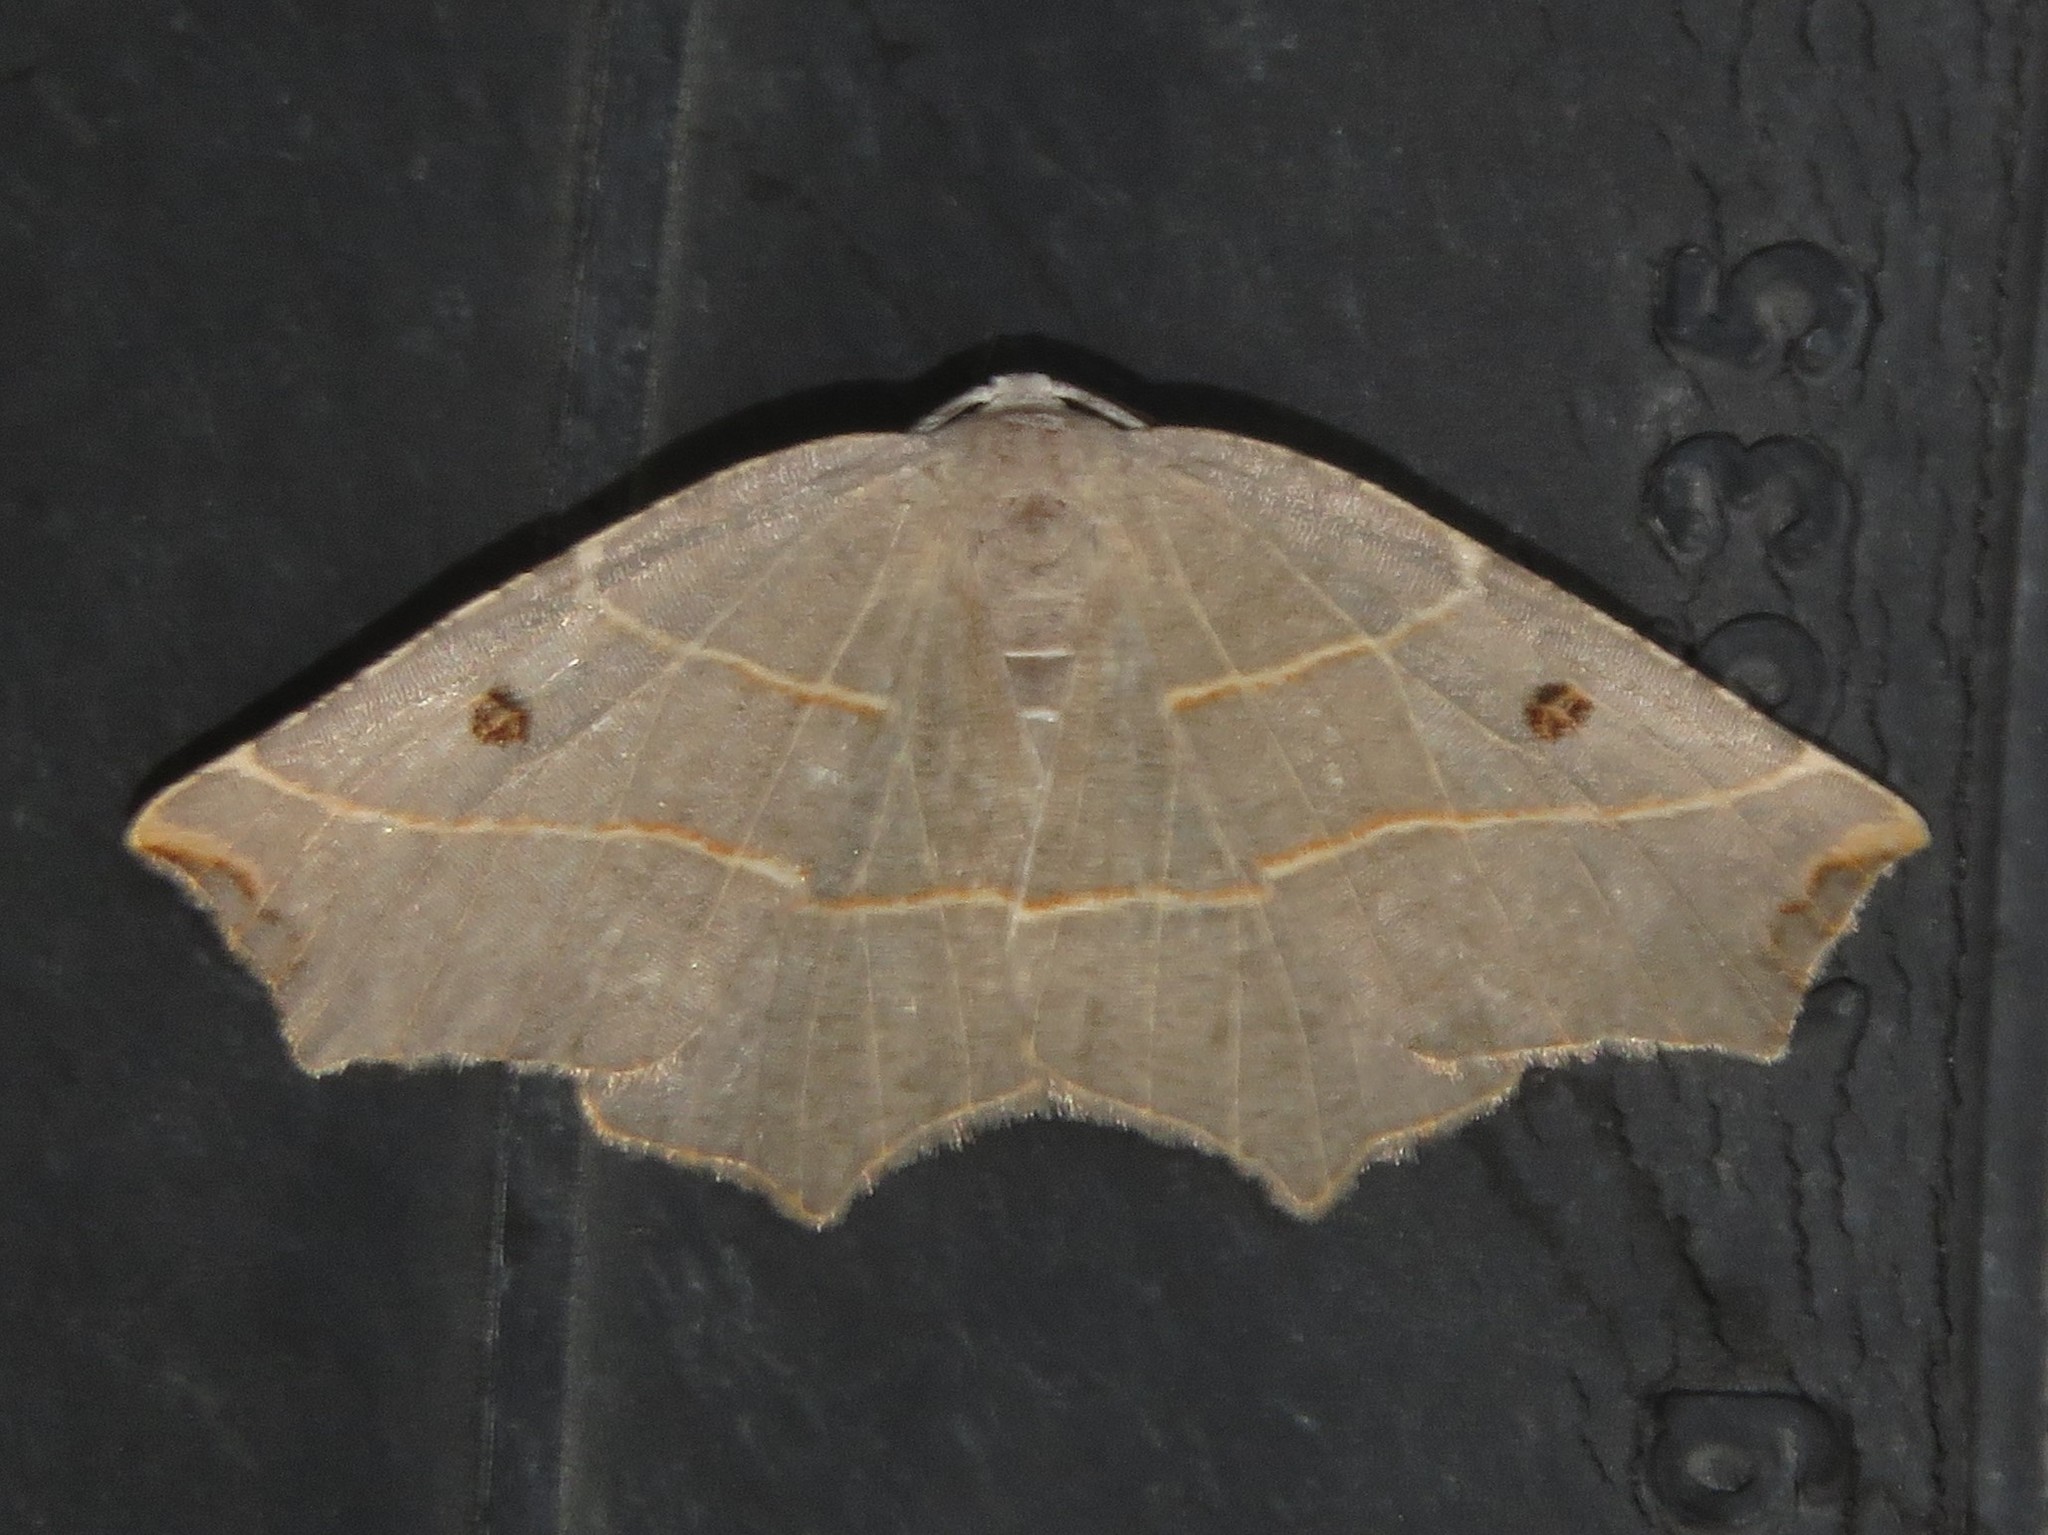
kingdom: Animalia
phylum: Arthropoda
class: Insecta
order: Lepidoptera
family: Geometridae
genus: Metanema
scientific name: Metanema inatomaria
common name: Pale metanema
